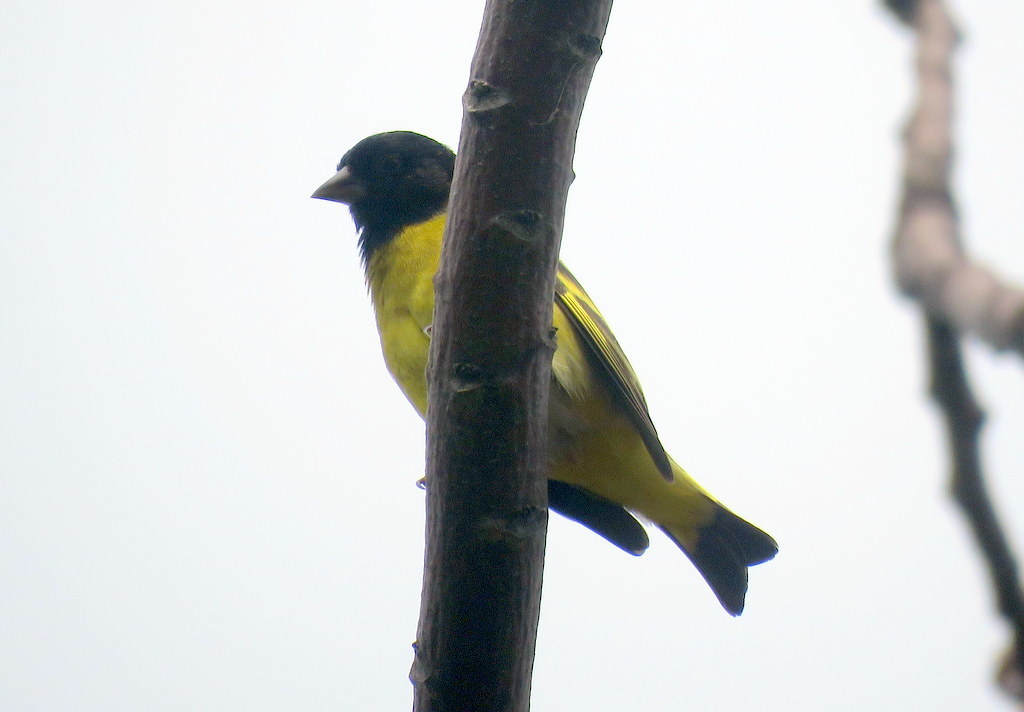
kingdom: Animalia
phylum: Chordata
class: Aves
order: Passeriformes
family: Fringillidae
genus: Spinus
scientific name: Spinus magellanicus
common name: Hooded siskin
